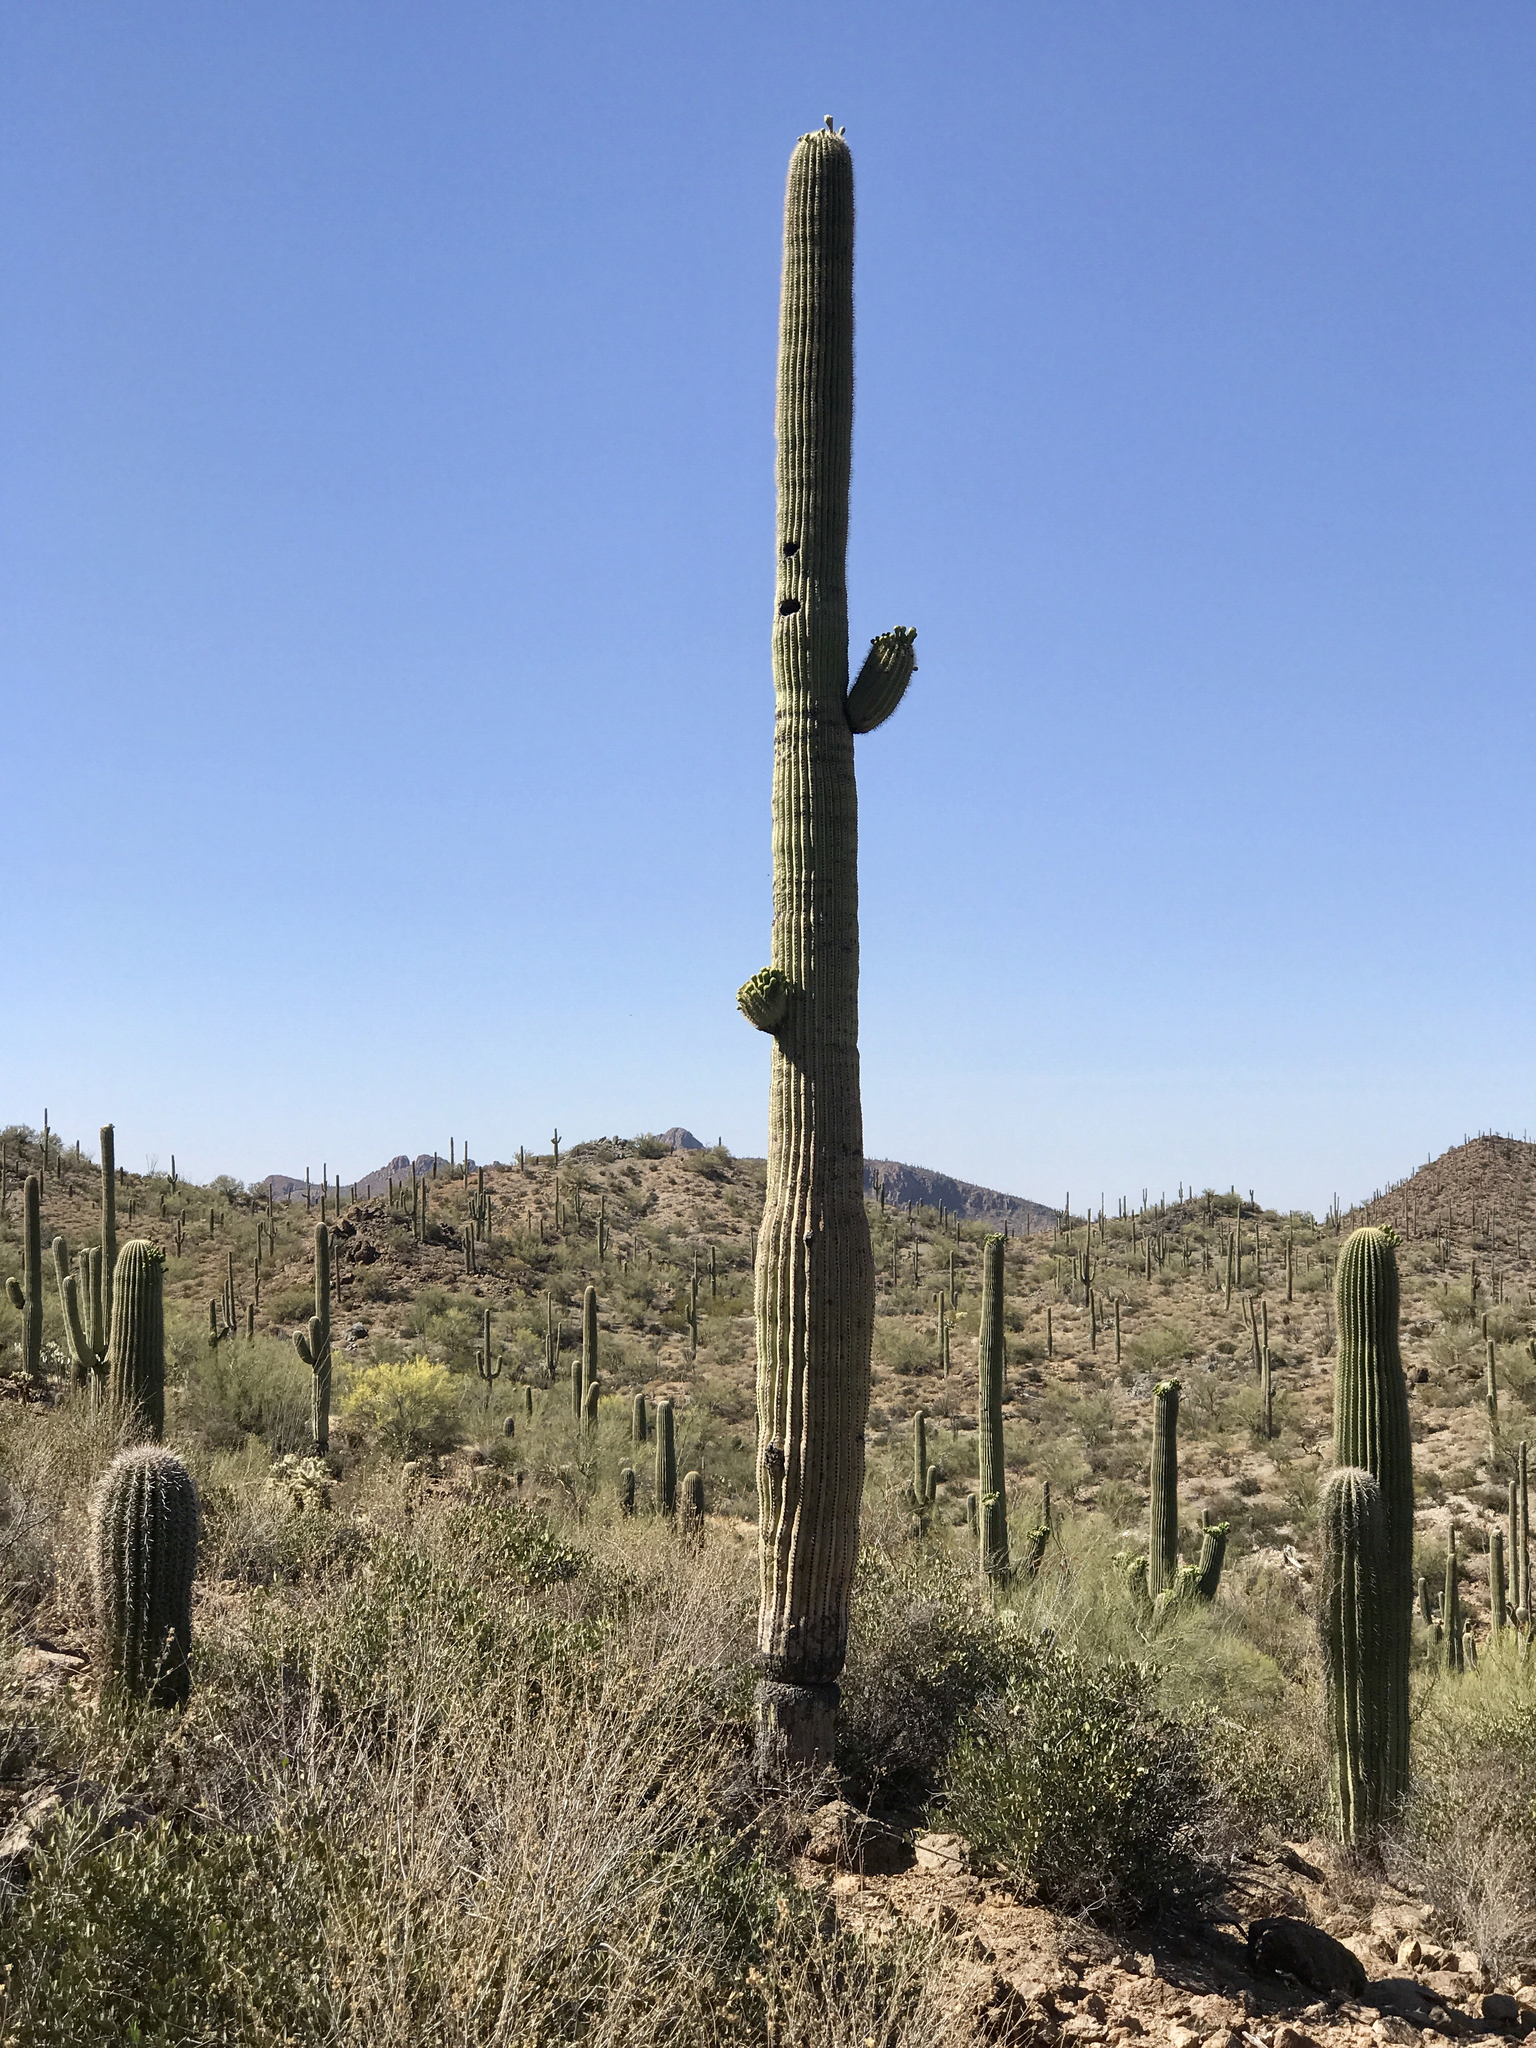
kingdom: Plantae
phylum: Tracheophyta
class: Magnoliopsida
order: Caryophyllales
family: Cactaceae
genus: Carnegiea
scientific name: Carnegiea gigantea
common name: Saguaro
